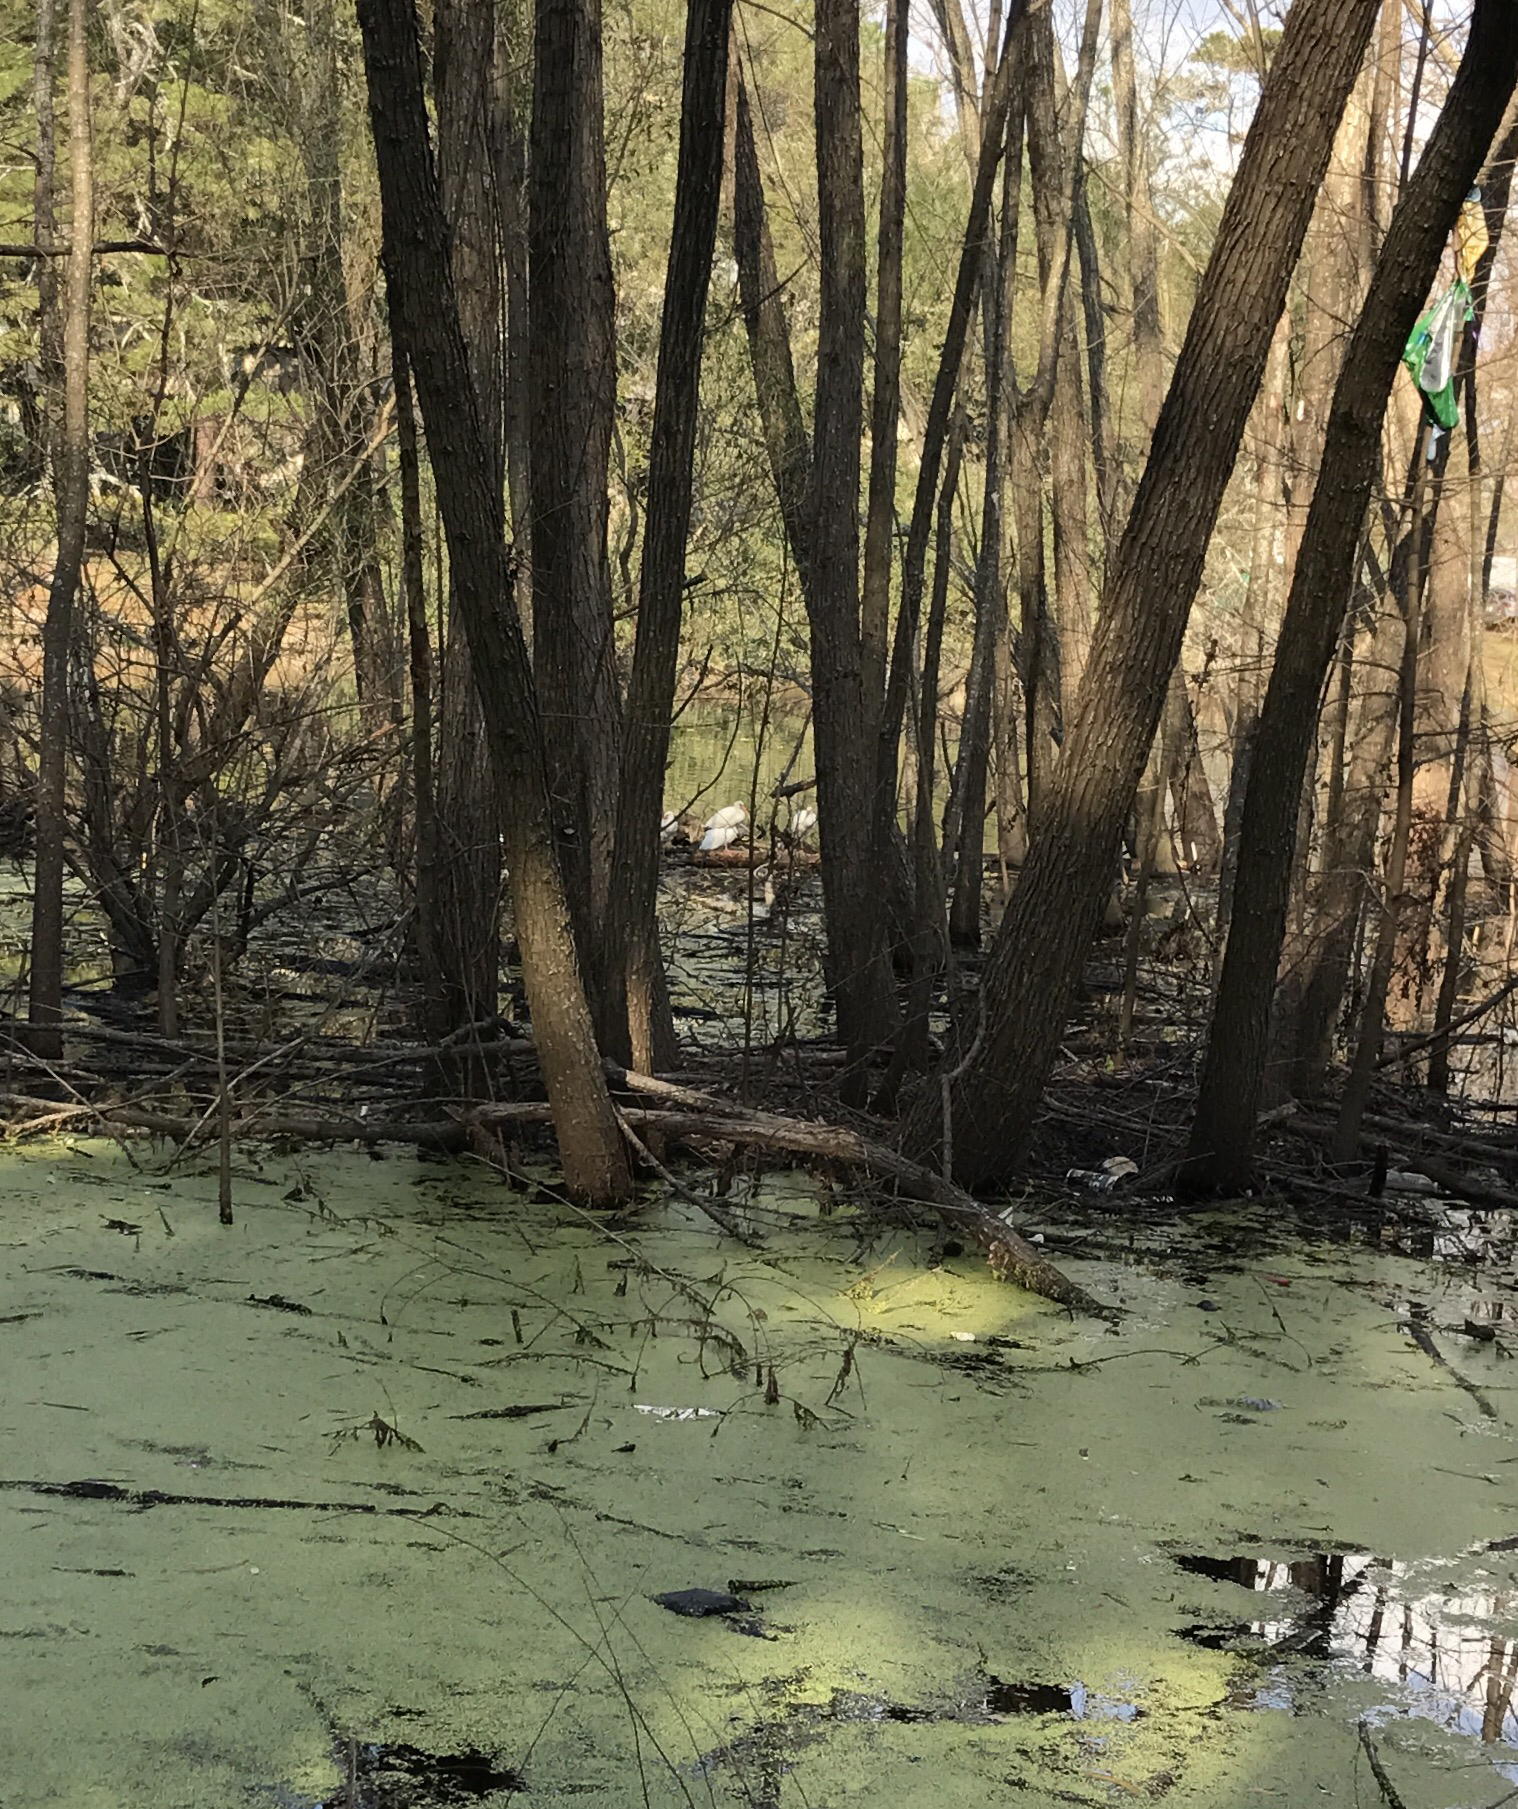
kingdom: Animalia
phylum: Chordata
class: Aves
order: Pelecaniformes
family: Threskiornithidae
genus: Eudocimus
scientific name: Eudocimus albus
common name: White ibis
